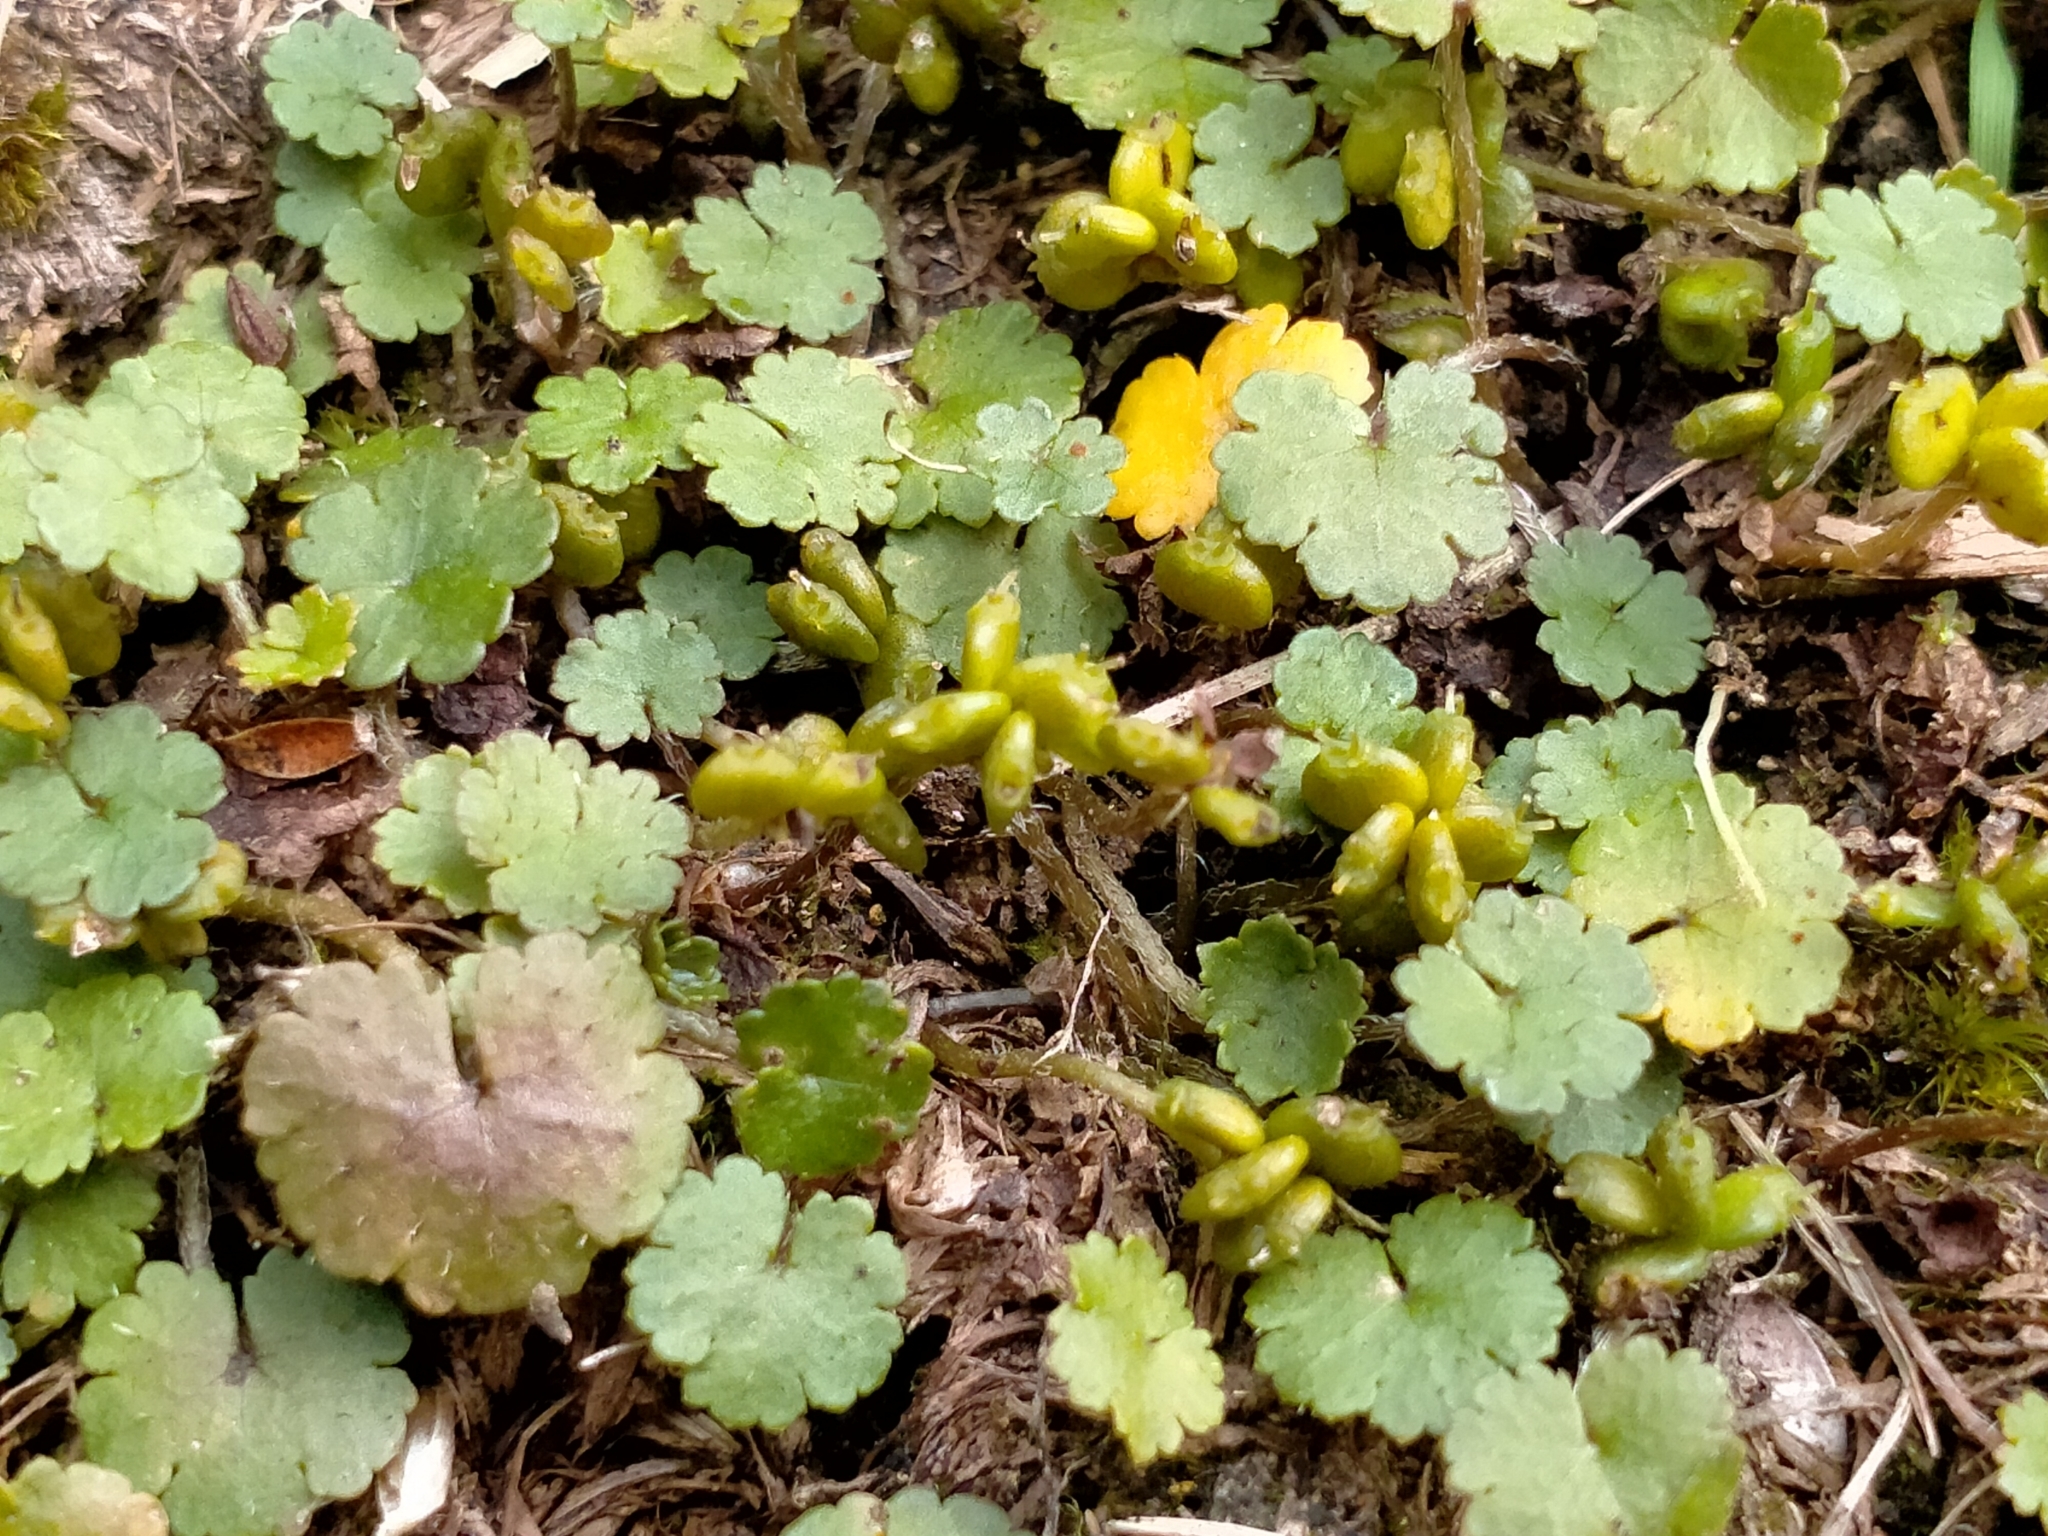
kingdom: Plantae
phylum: Tracheophyta
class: Magnoliopsida
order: Apiales
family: Araliaceae
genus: Hydrocotyle
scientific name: Hydrocotyle novae-zeelandiae
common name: New zealand pennywort
